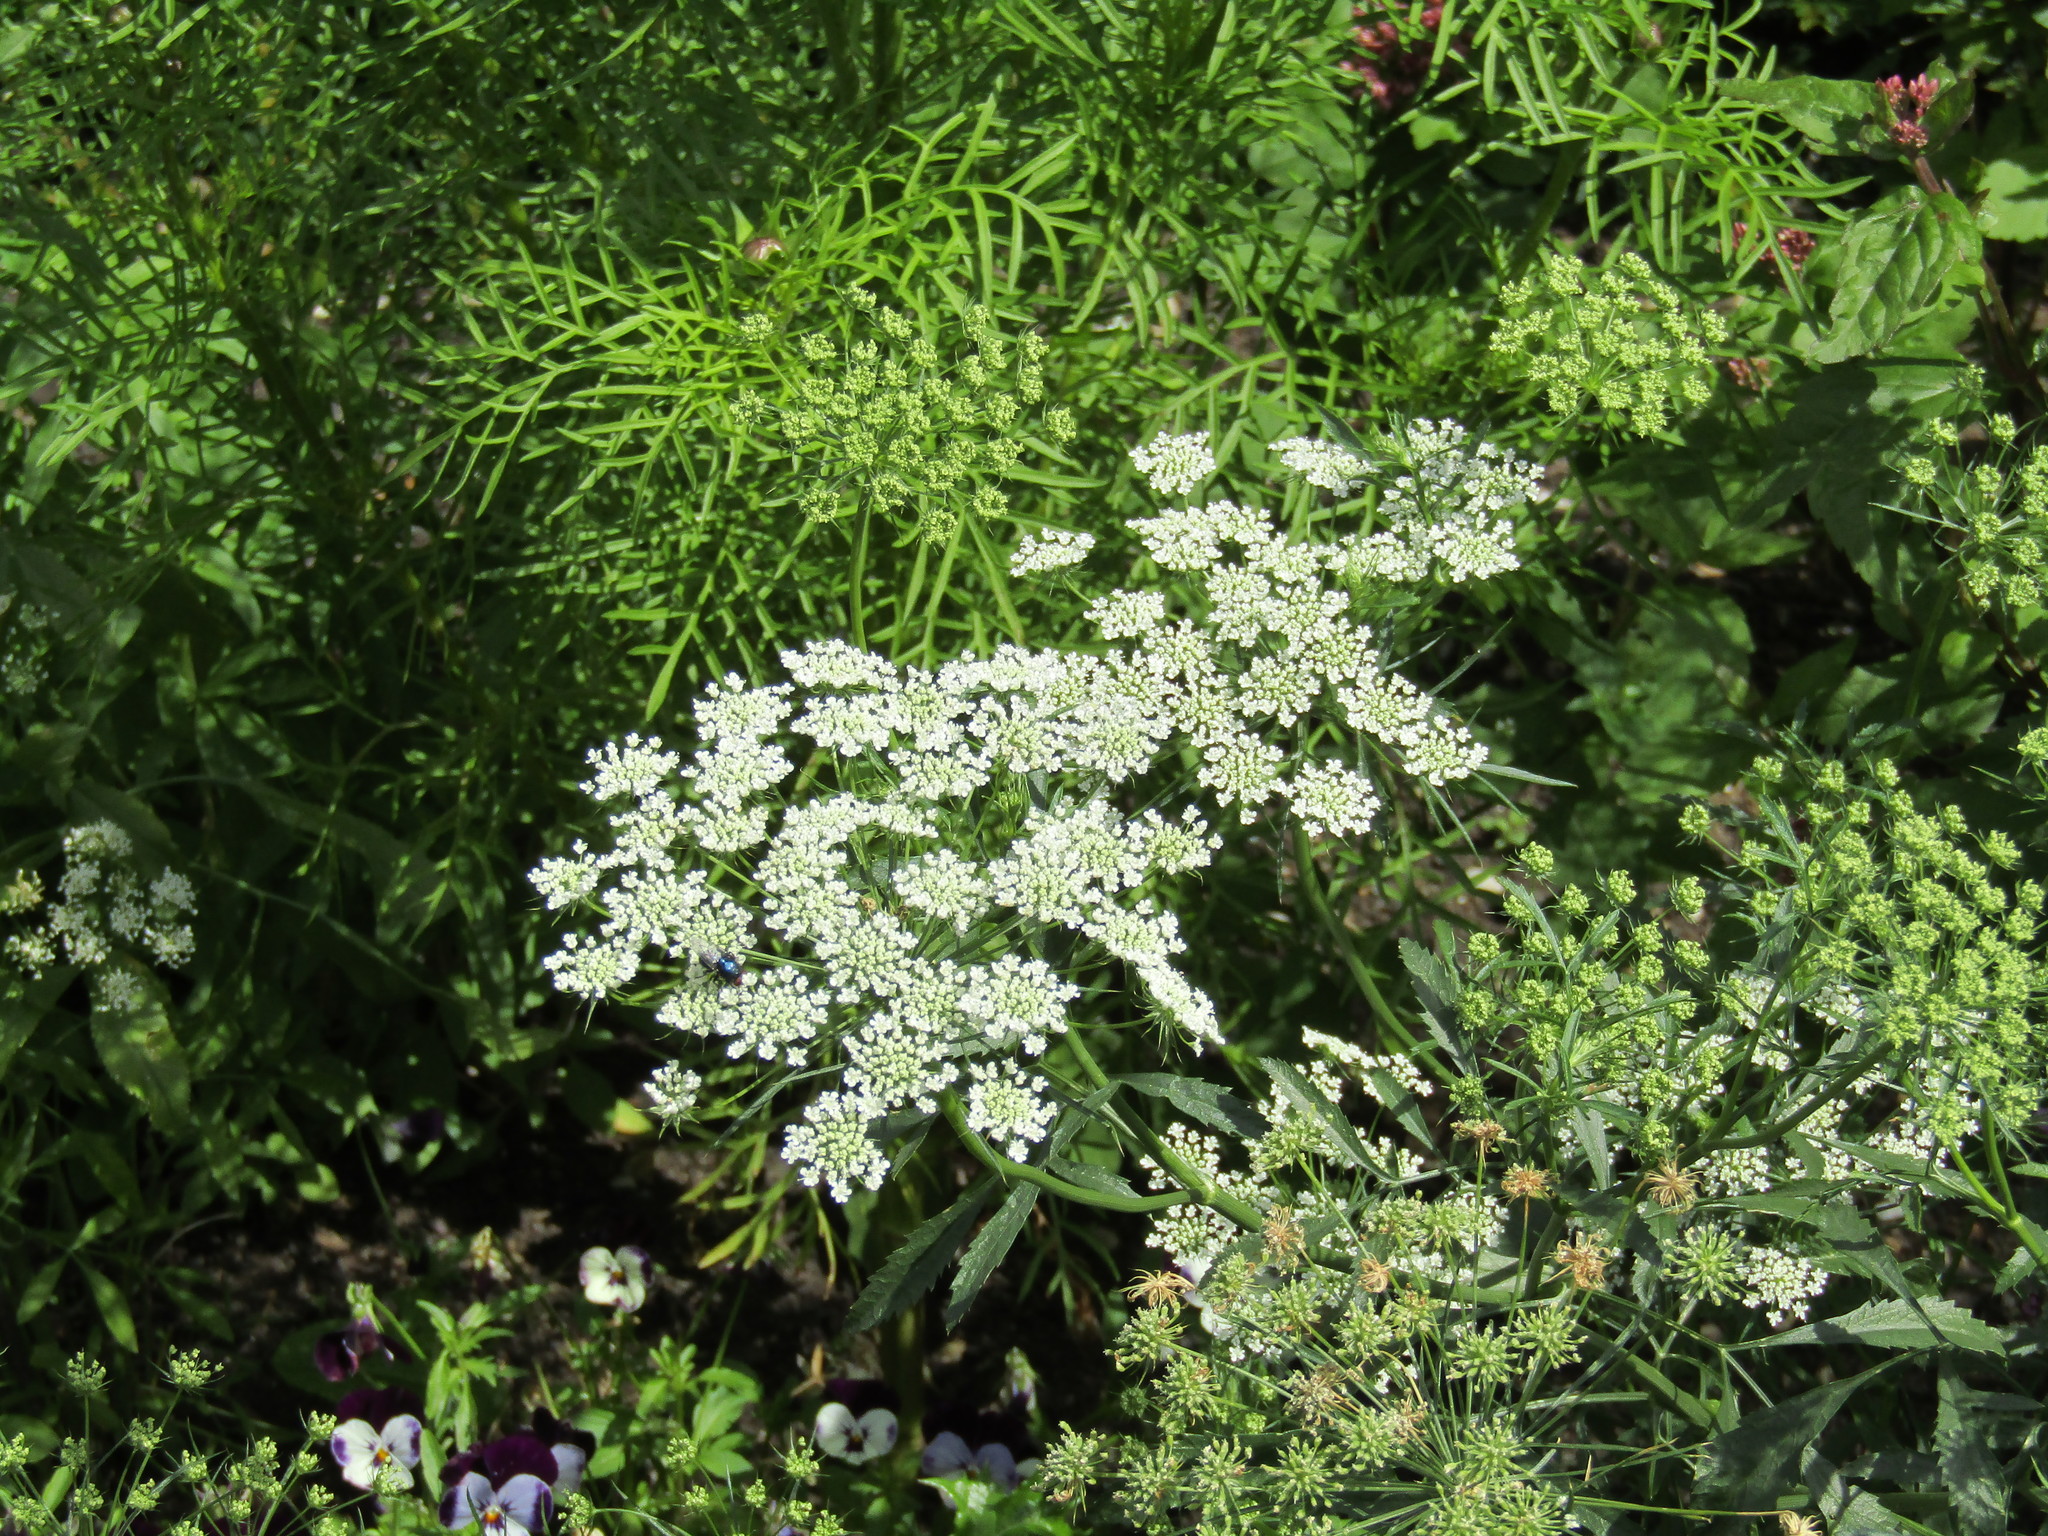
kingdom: Plantae
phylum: Tracheophyta
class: Magnoliopsida
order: Apiales
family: Apiaceae
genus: Ammi
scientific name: Ammi majus
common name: Bullwort
